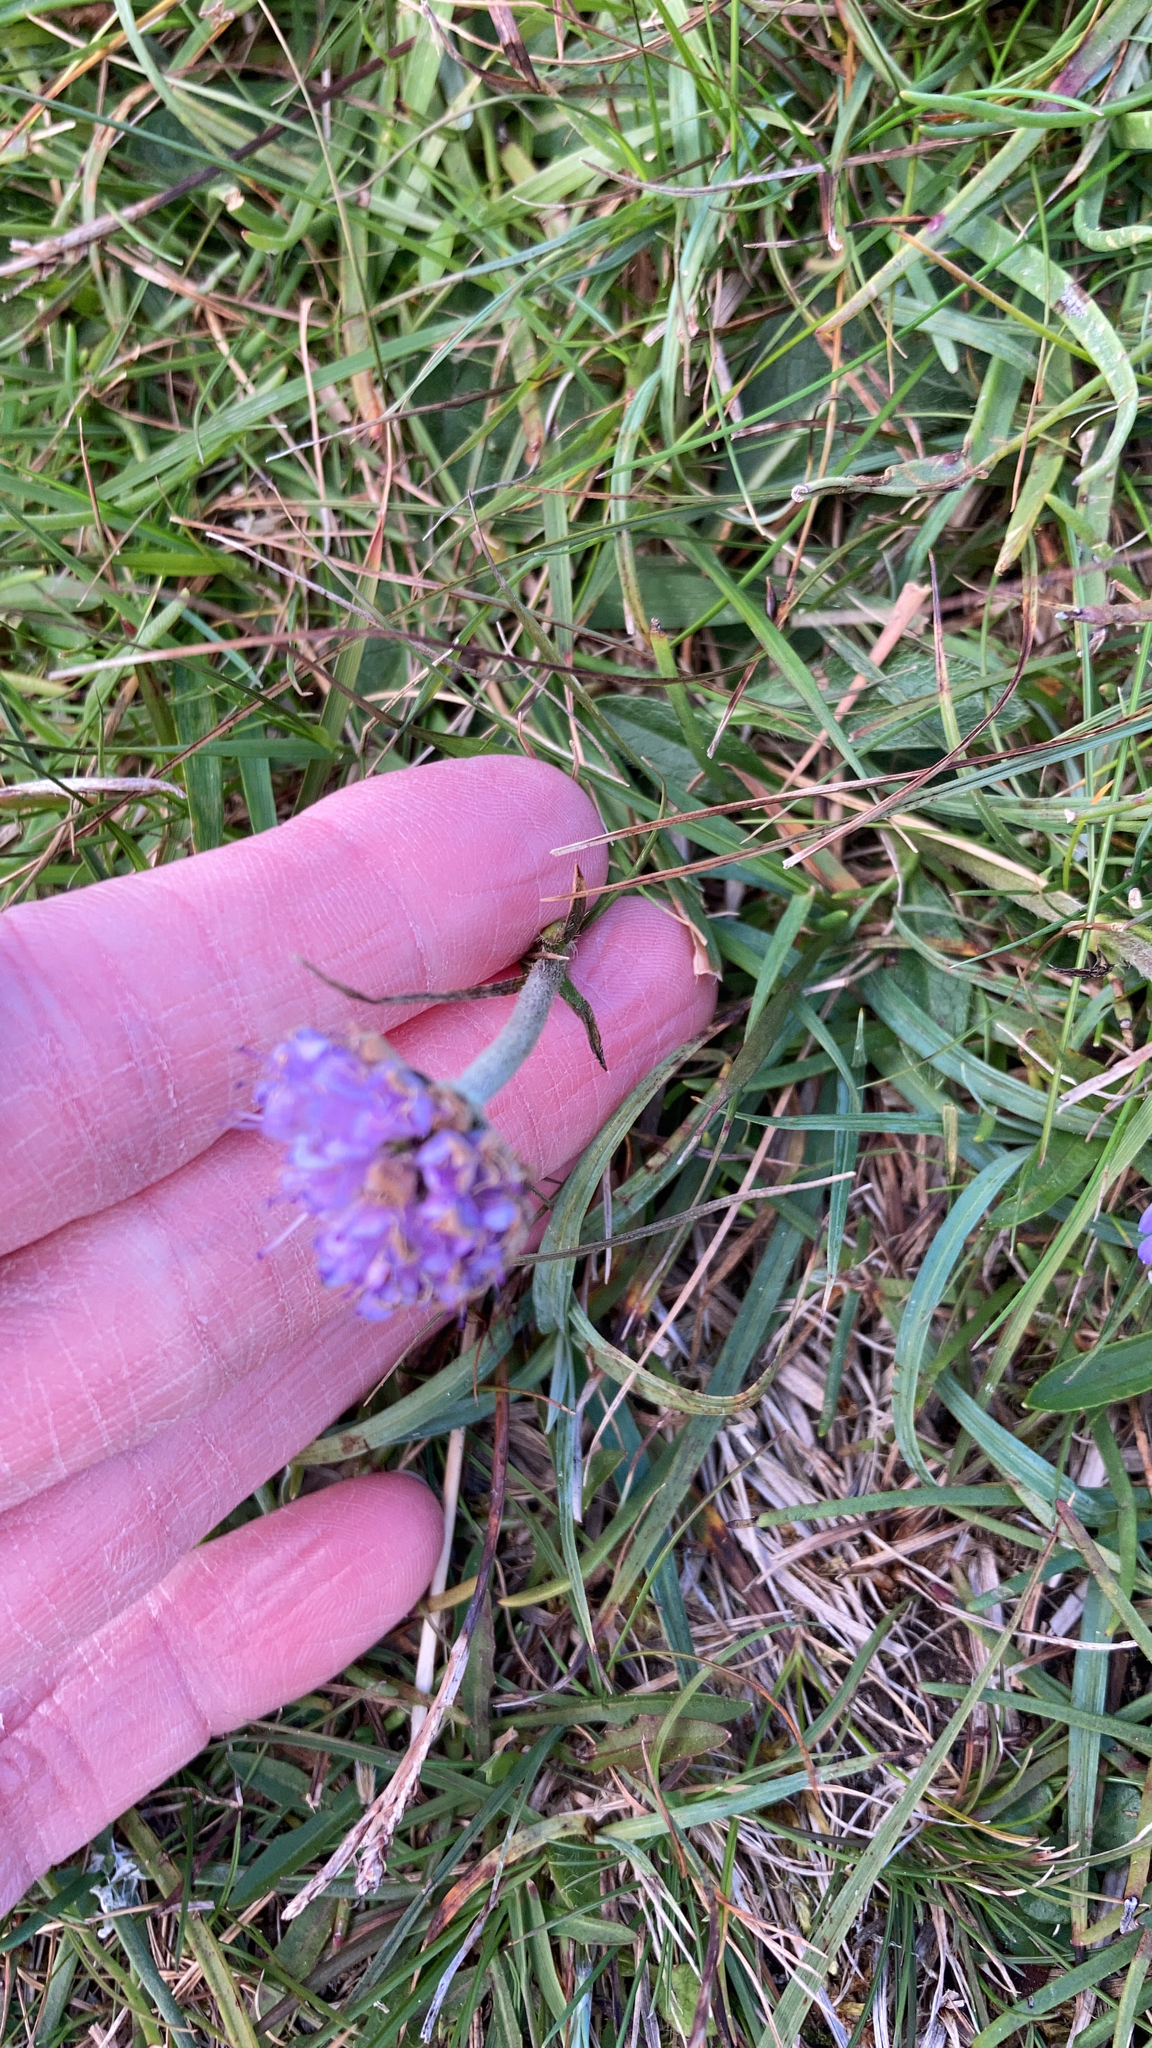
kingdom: Plantae
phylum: Tracheophyta
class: Magnoliopsida
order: Dipsacales
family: Caprifoliaceae
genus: Succisa
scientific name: Succisa pratensis
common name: Devil's-bit
